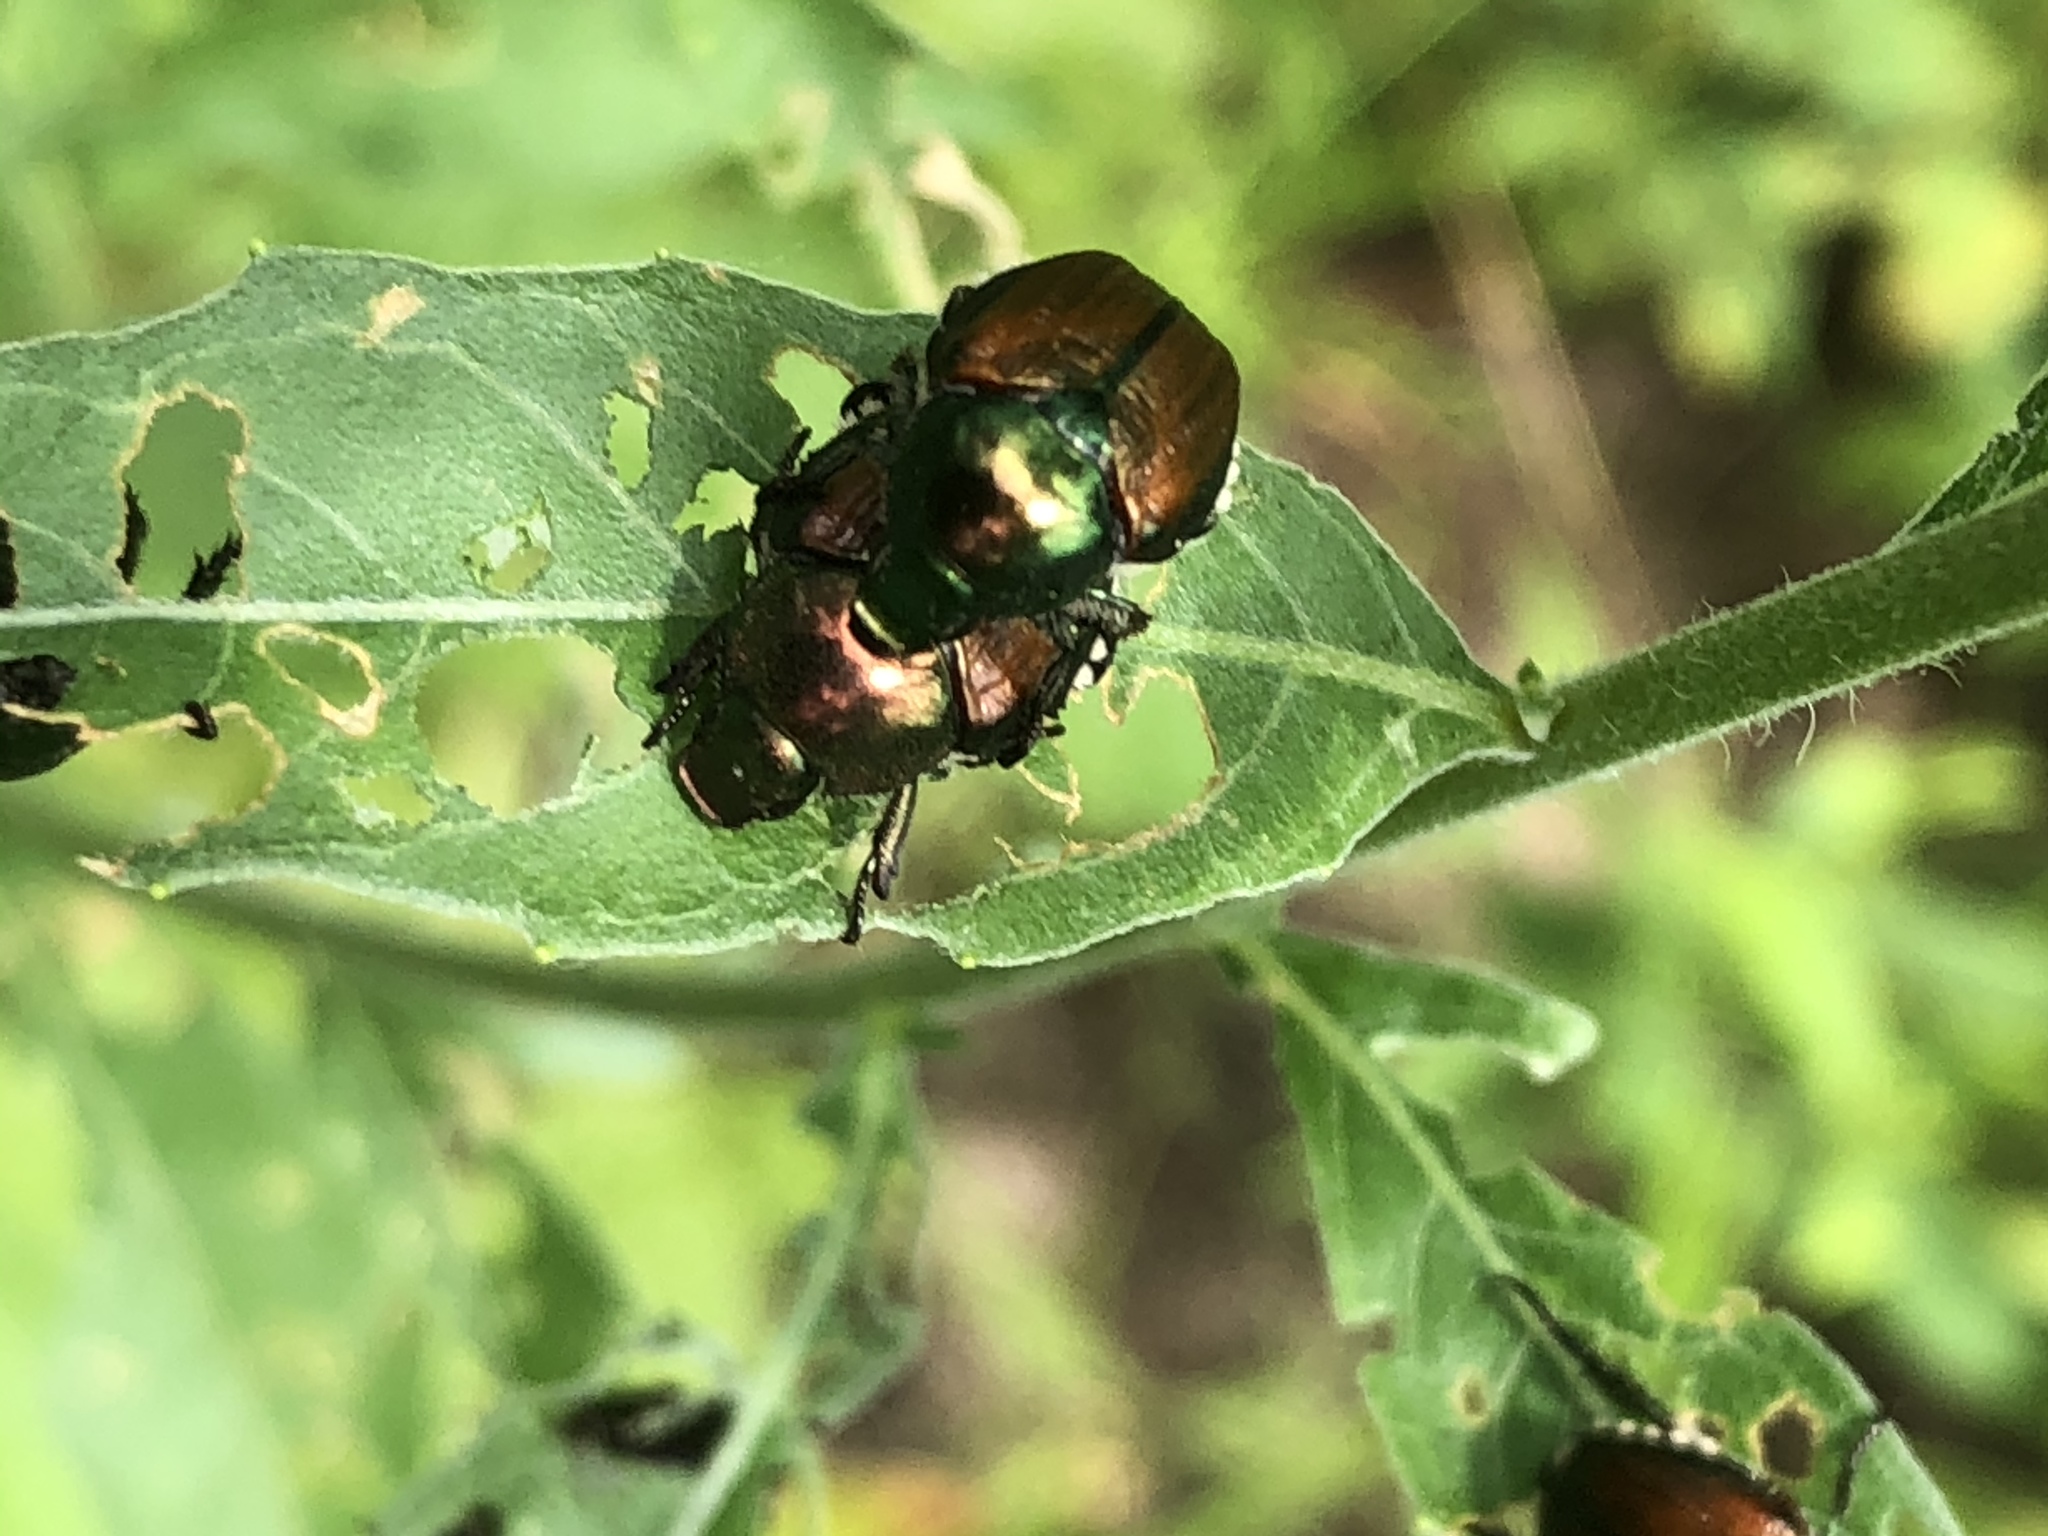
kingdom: Animalia
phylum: Arthropoda
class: Insecta
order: Coleoptera
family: Scarabaeidae
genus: Popillia
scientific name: Popillia japonica
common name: Japanese beetle
